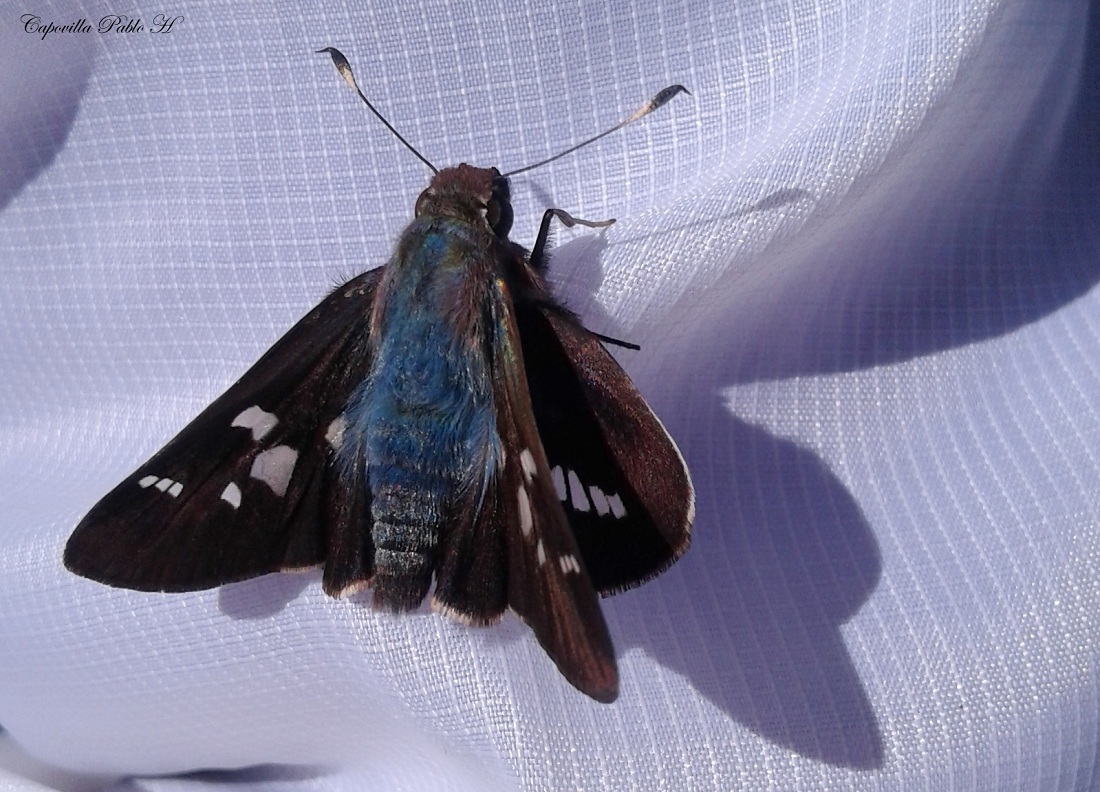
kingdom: Animalia
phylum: Arthropoda
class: Insecta
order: Lepidoptera
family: Hesperiidae
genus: Thespieus
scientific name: Thespieus aspernatus
